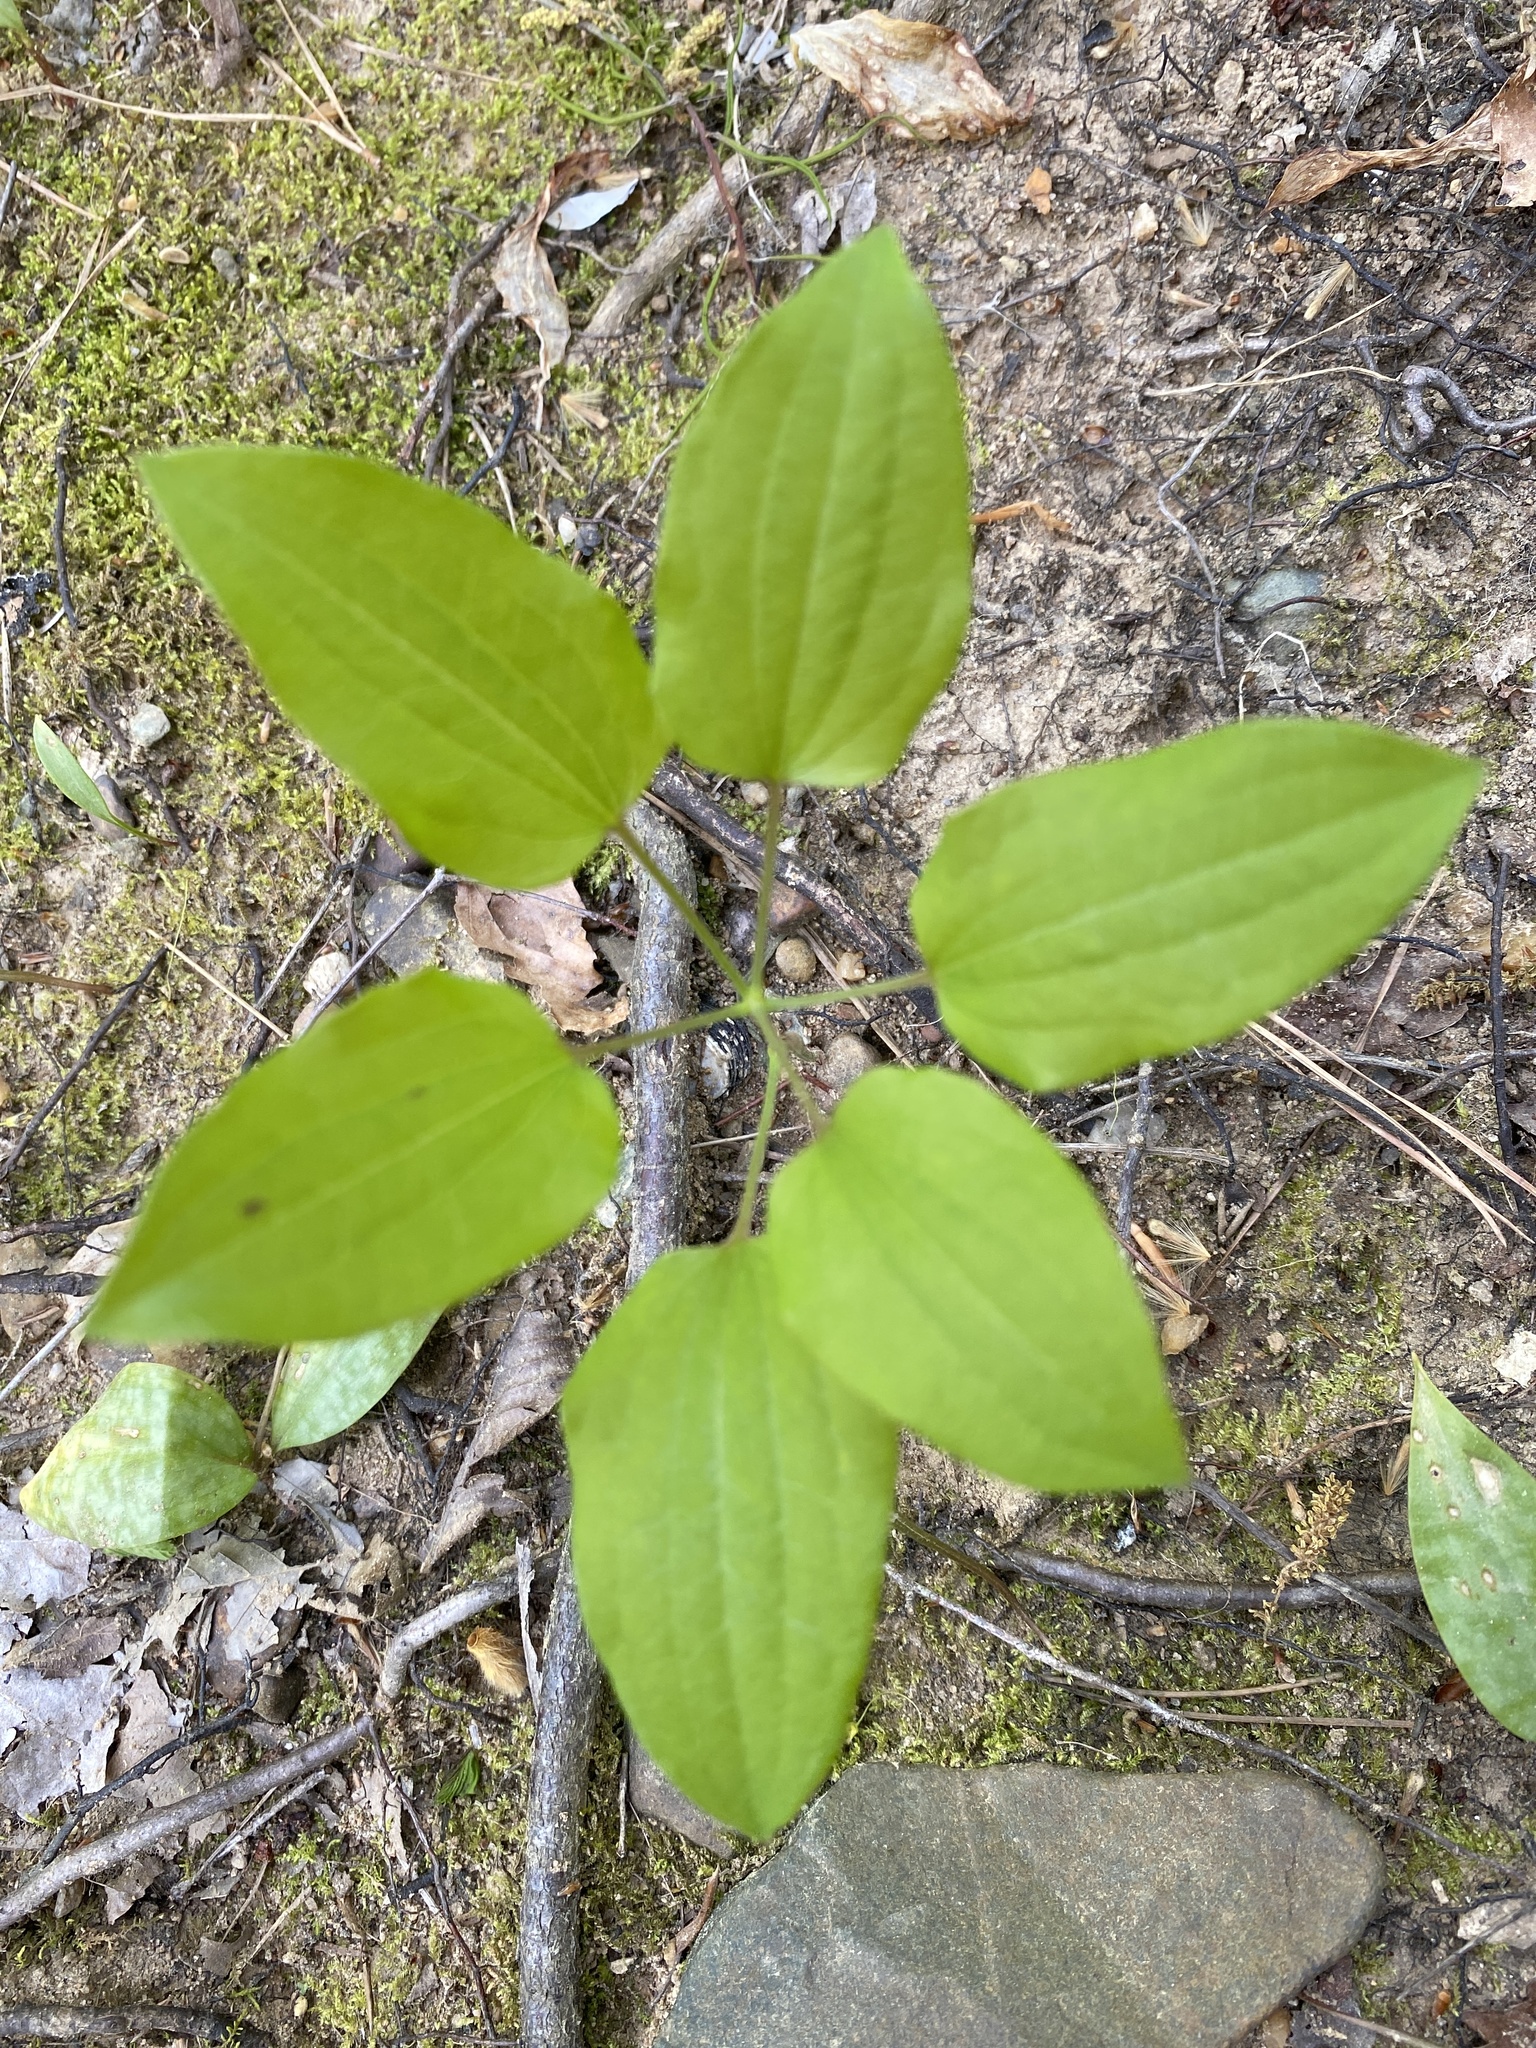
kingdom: Plantae
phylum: Tracheophyta
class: Liliopsida
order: Liliales
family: Smilacaceae
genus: Smilax
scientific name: Smilax herbacea
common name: Jacob's-ladder
